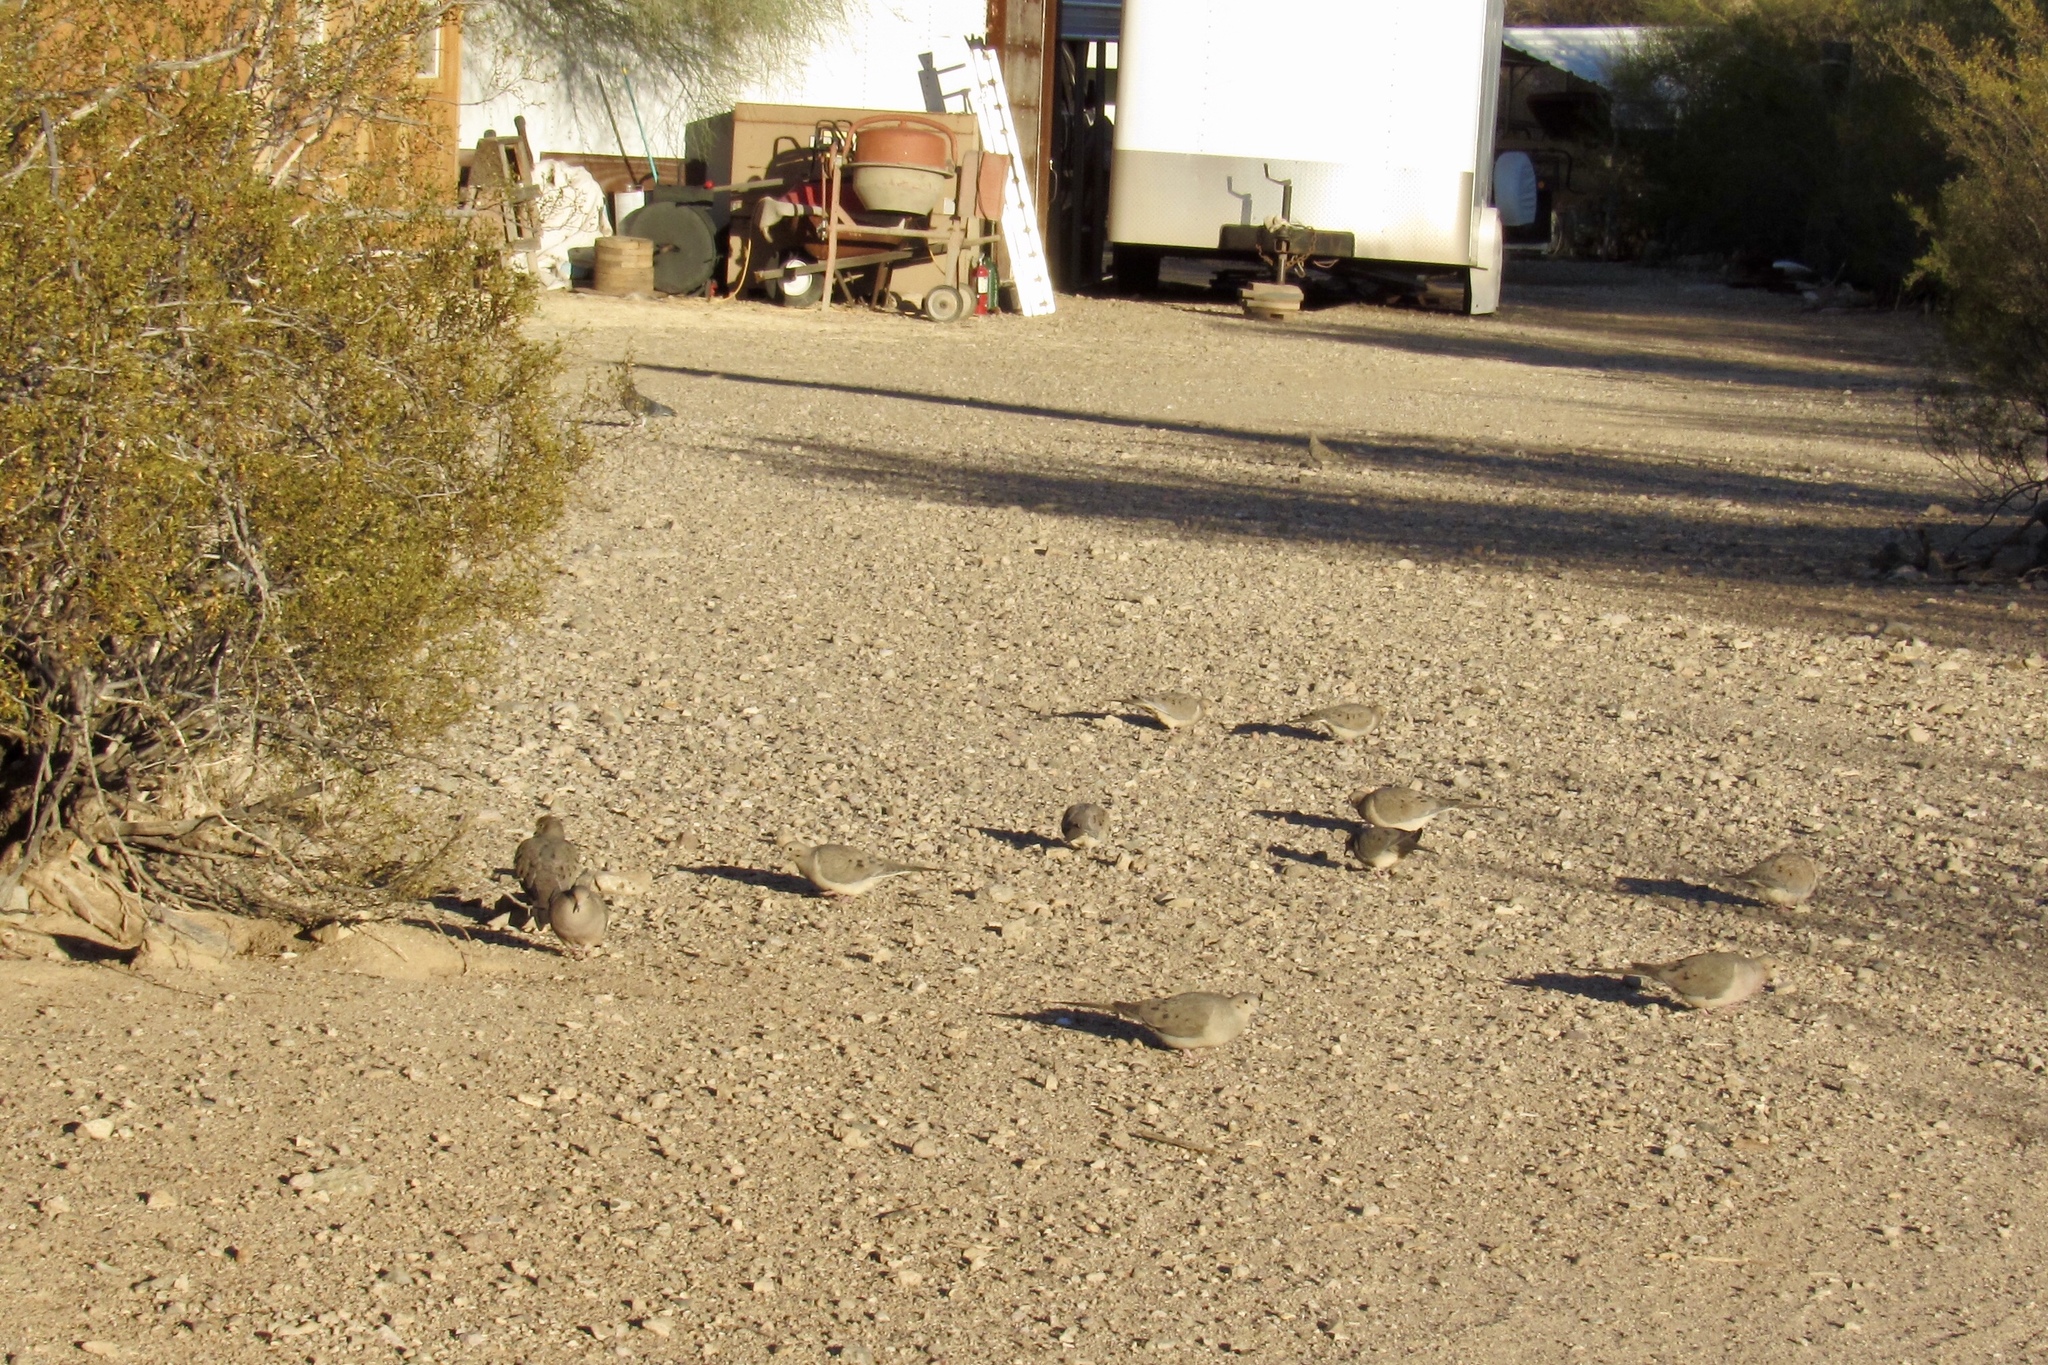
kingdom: Animalia
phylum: Chordata
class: Aves
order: Columbiformes
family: Columbidae
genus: Zenaida
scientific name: Zenaida macroura
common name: Mourning dove
